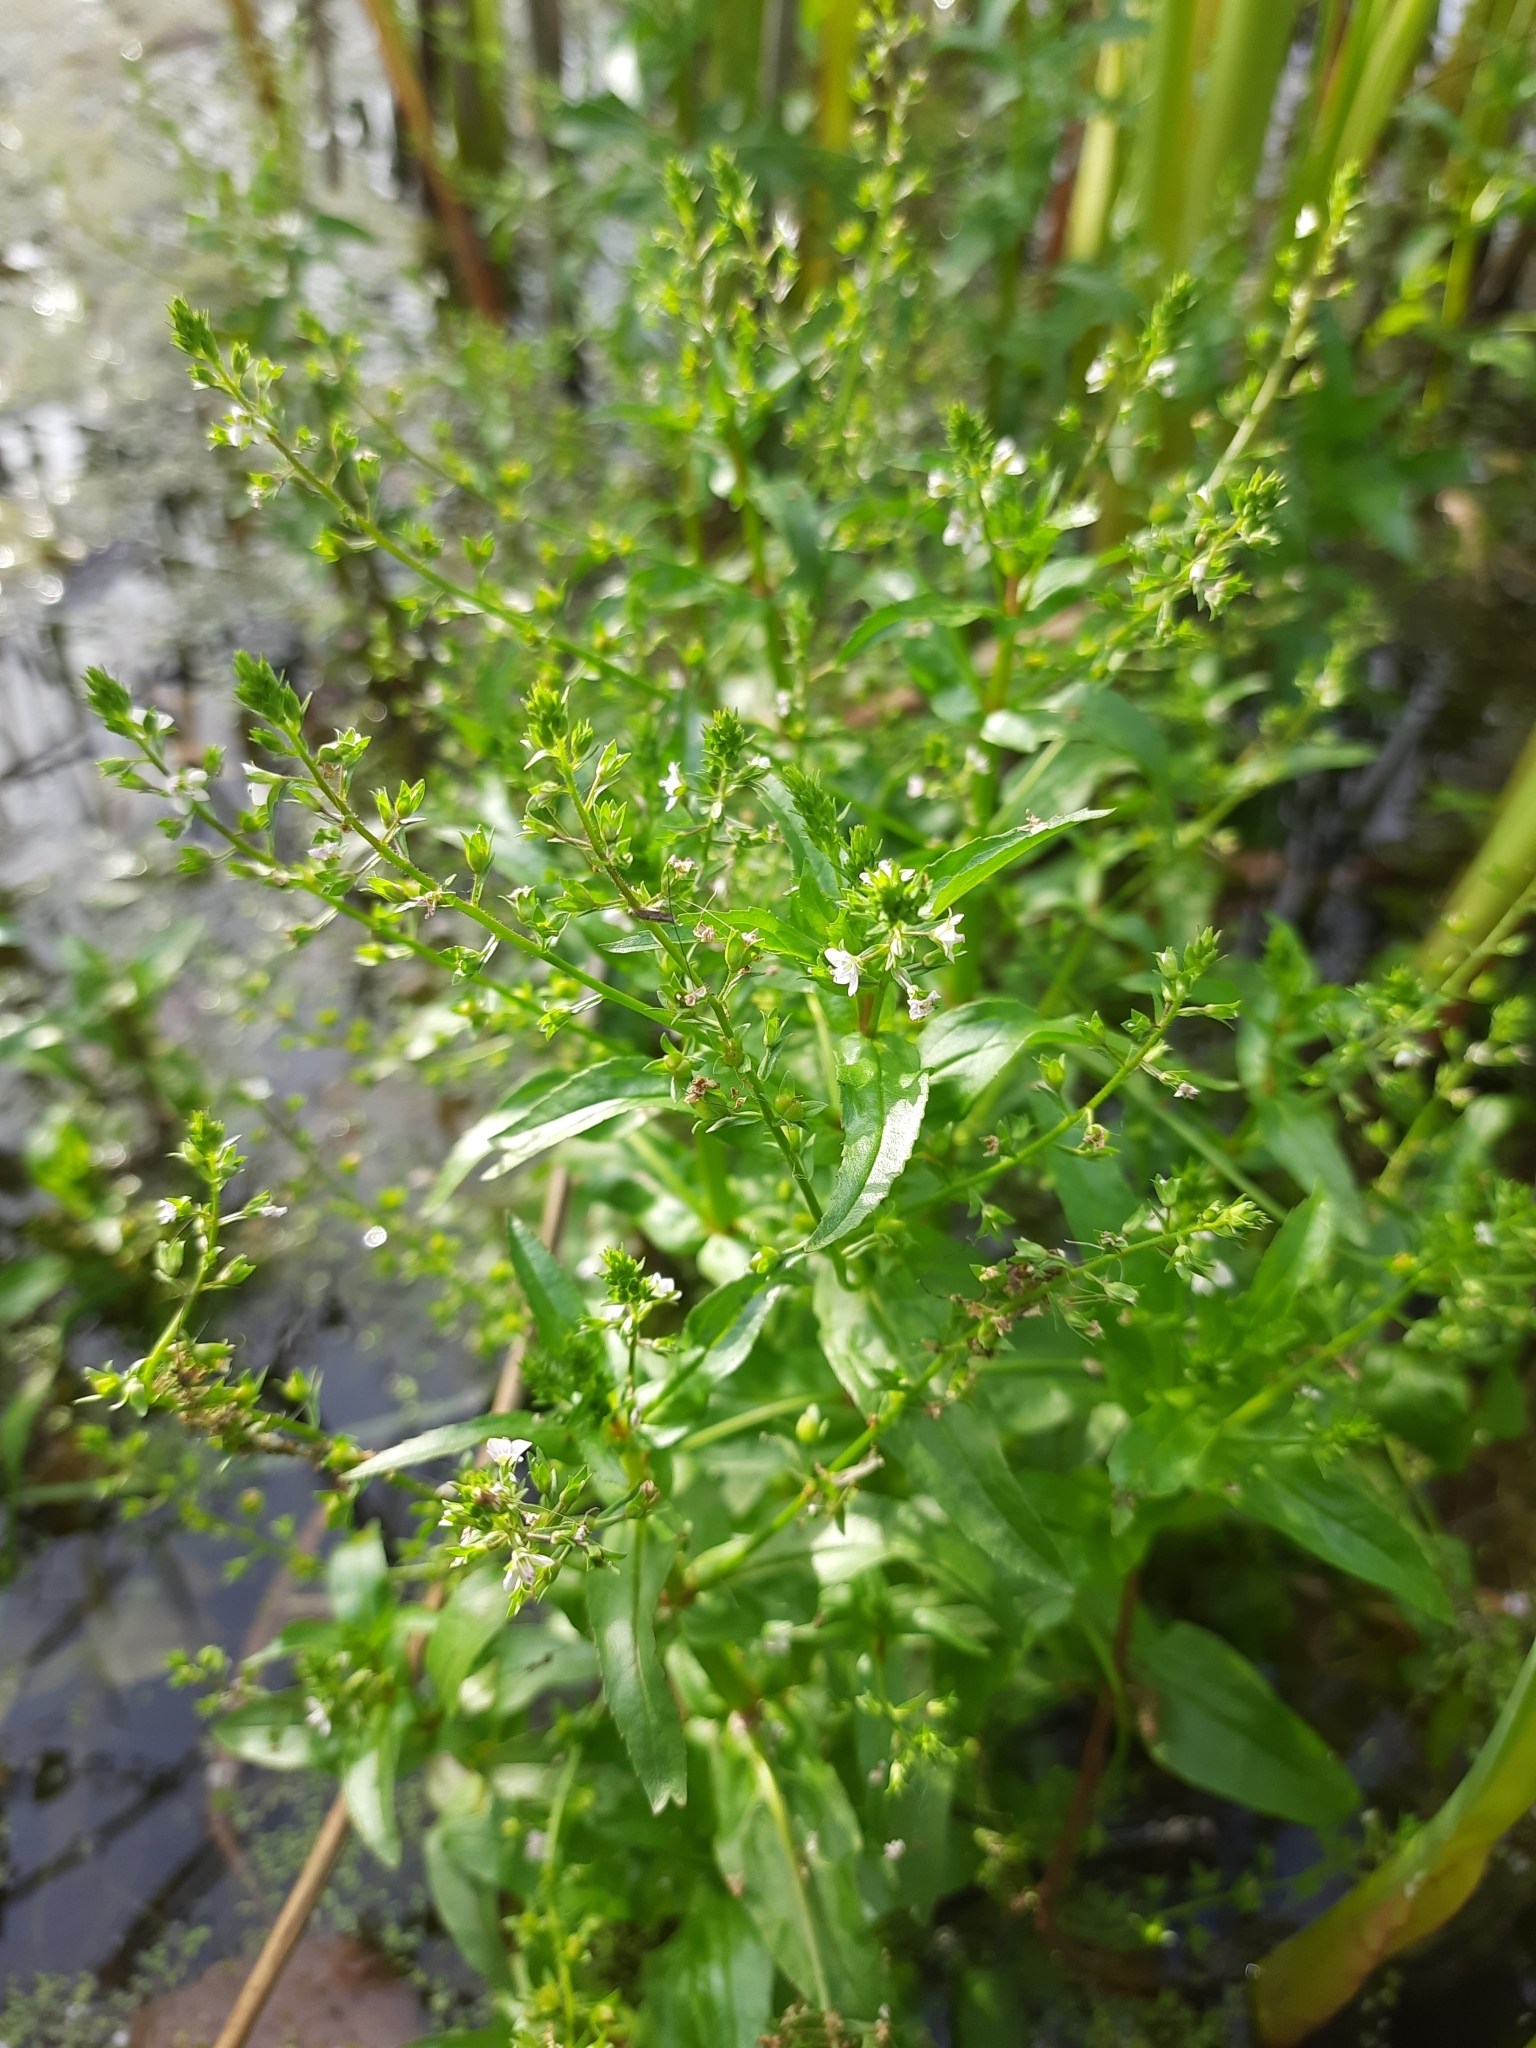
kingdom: Plantae
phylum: Tracheophyta
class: Magnoliopsida
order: Lamiales
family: Plantaginaceae
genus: Veronica
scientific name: Veronica anagallis-aquatica
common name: Water speedwell
